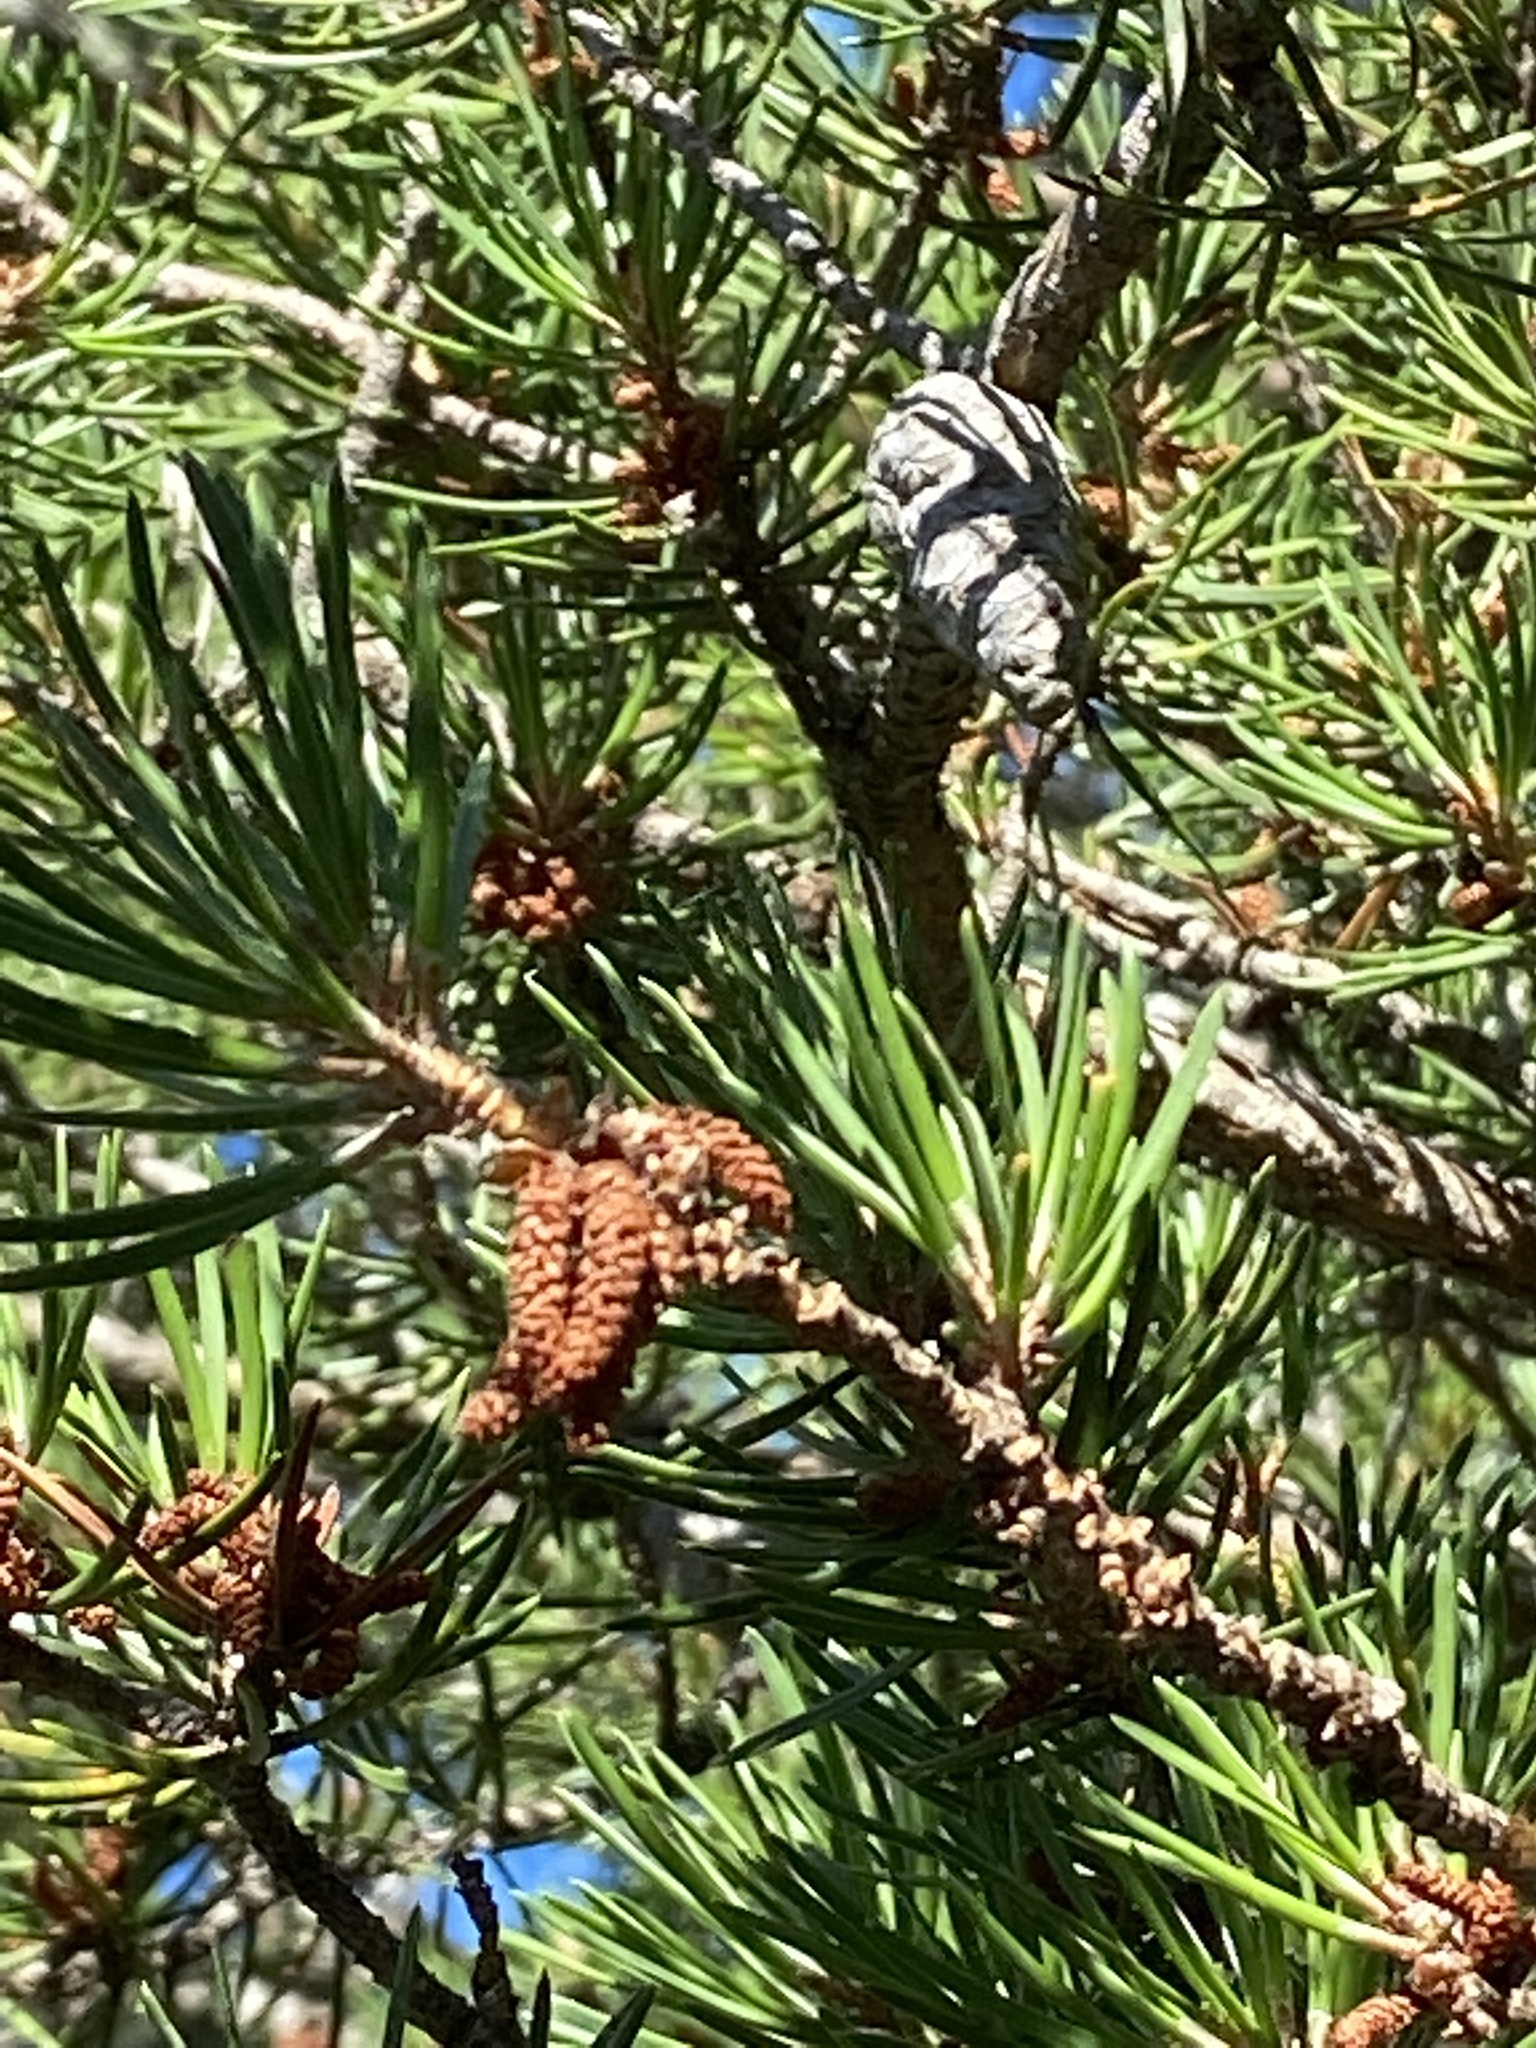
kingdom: Plantae
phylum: Tracheophyta
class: Pinopsida
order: Pinales
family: Pinaceae
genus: Pinus
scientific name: Pinus banksiana
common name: Jack pine
